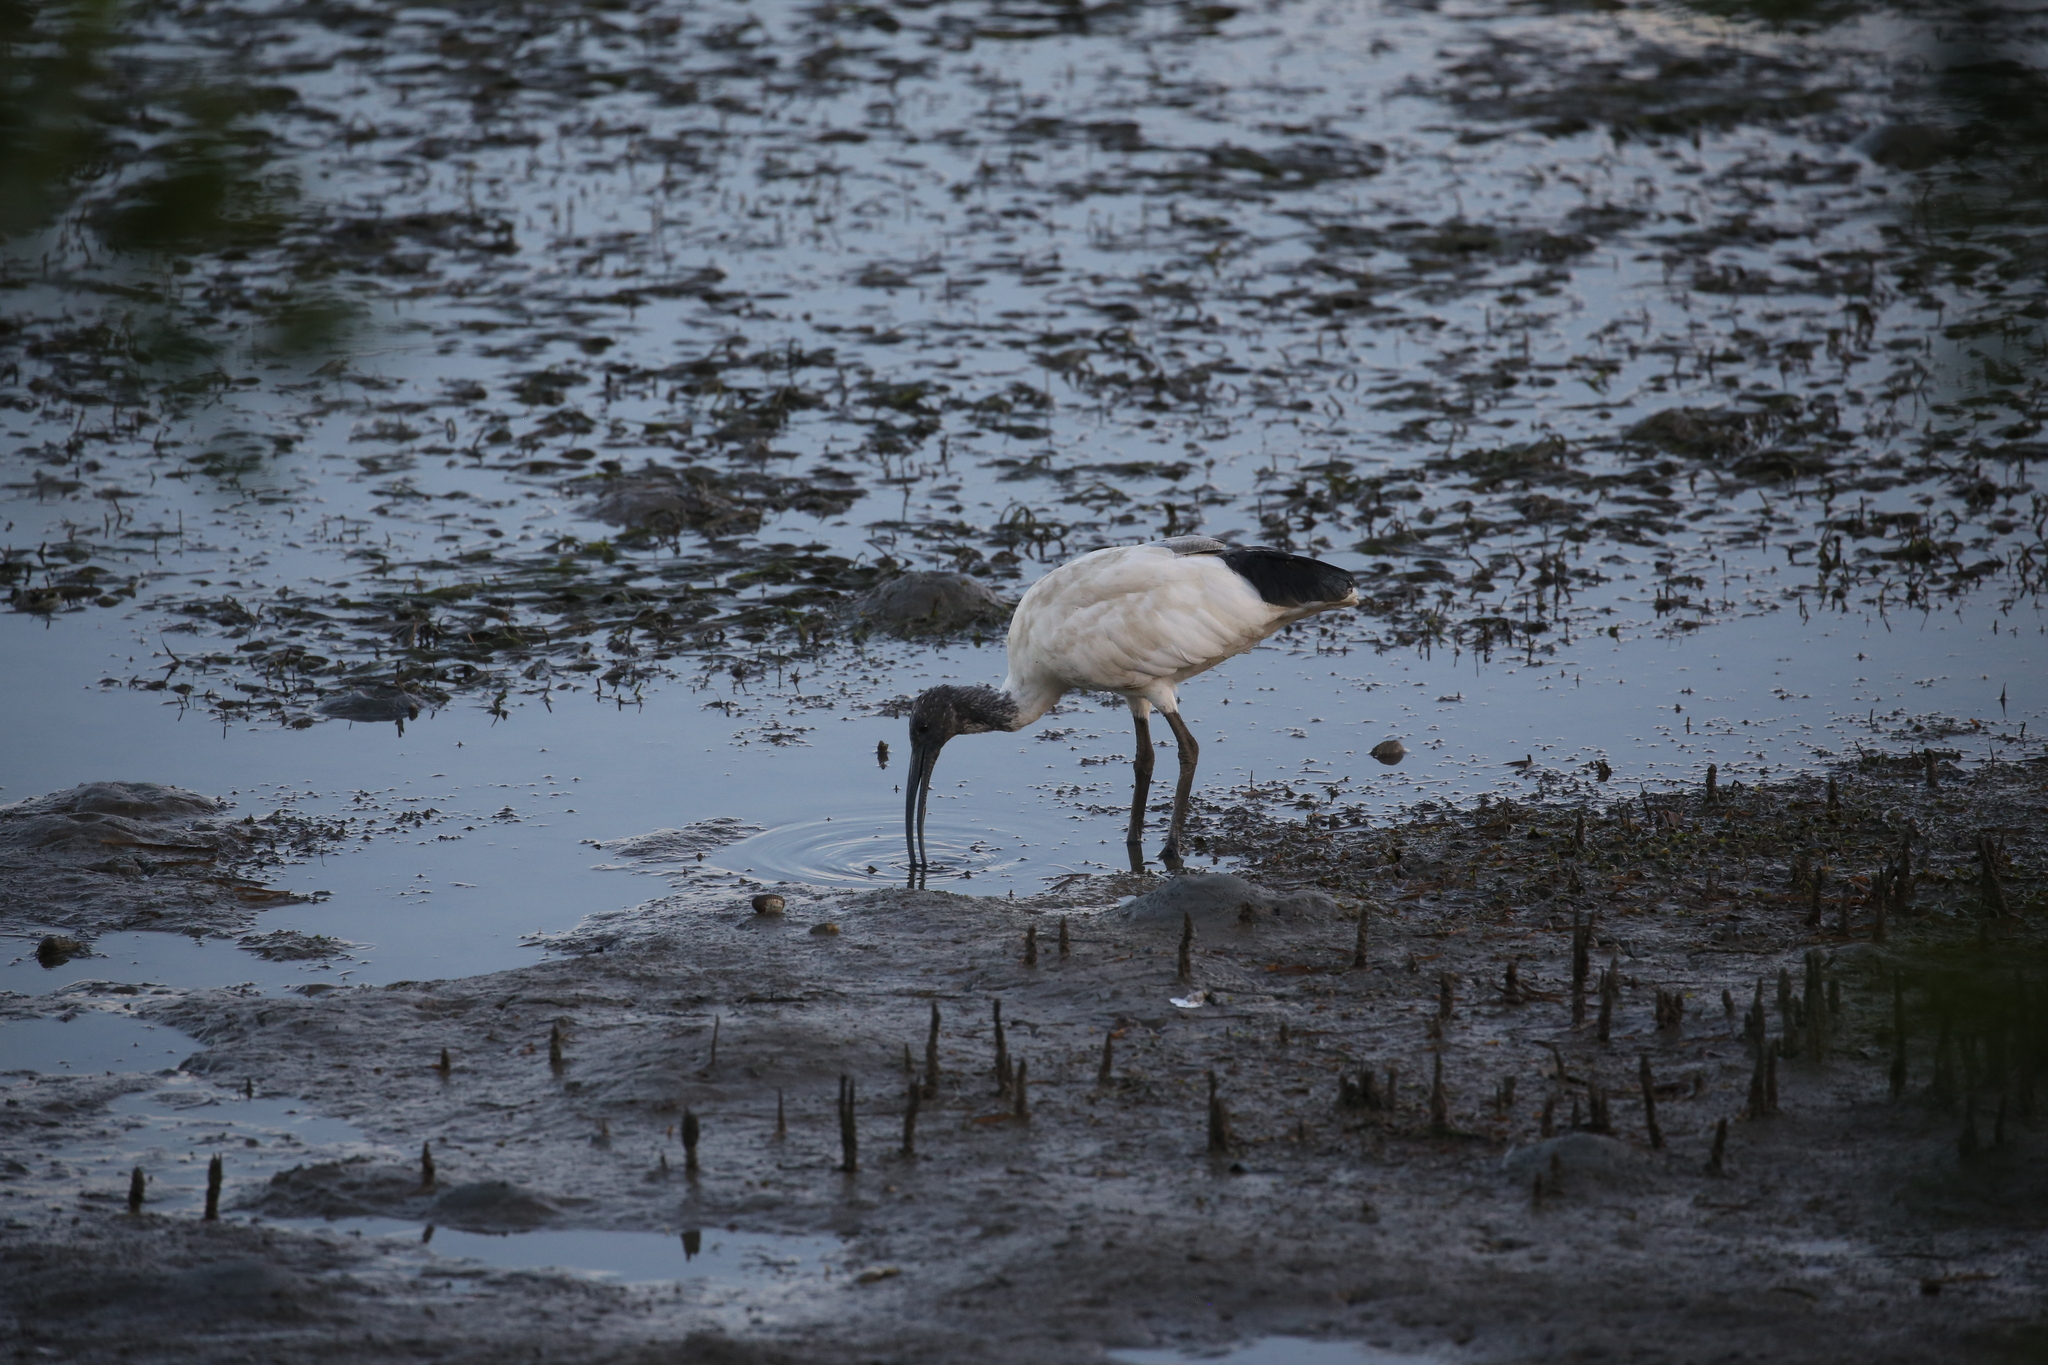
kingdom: Animalia
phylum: Chordata
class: Aves
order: Pelecaniformes
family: Threskiornithidae
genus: Threskiornis
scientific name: Threskiornis molucca
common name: Australian white ibis
